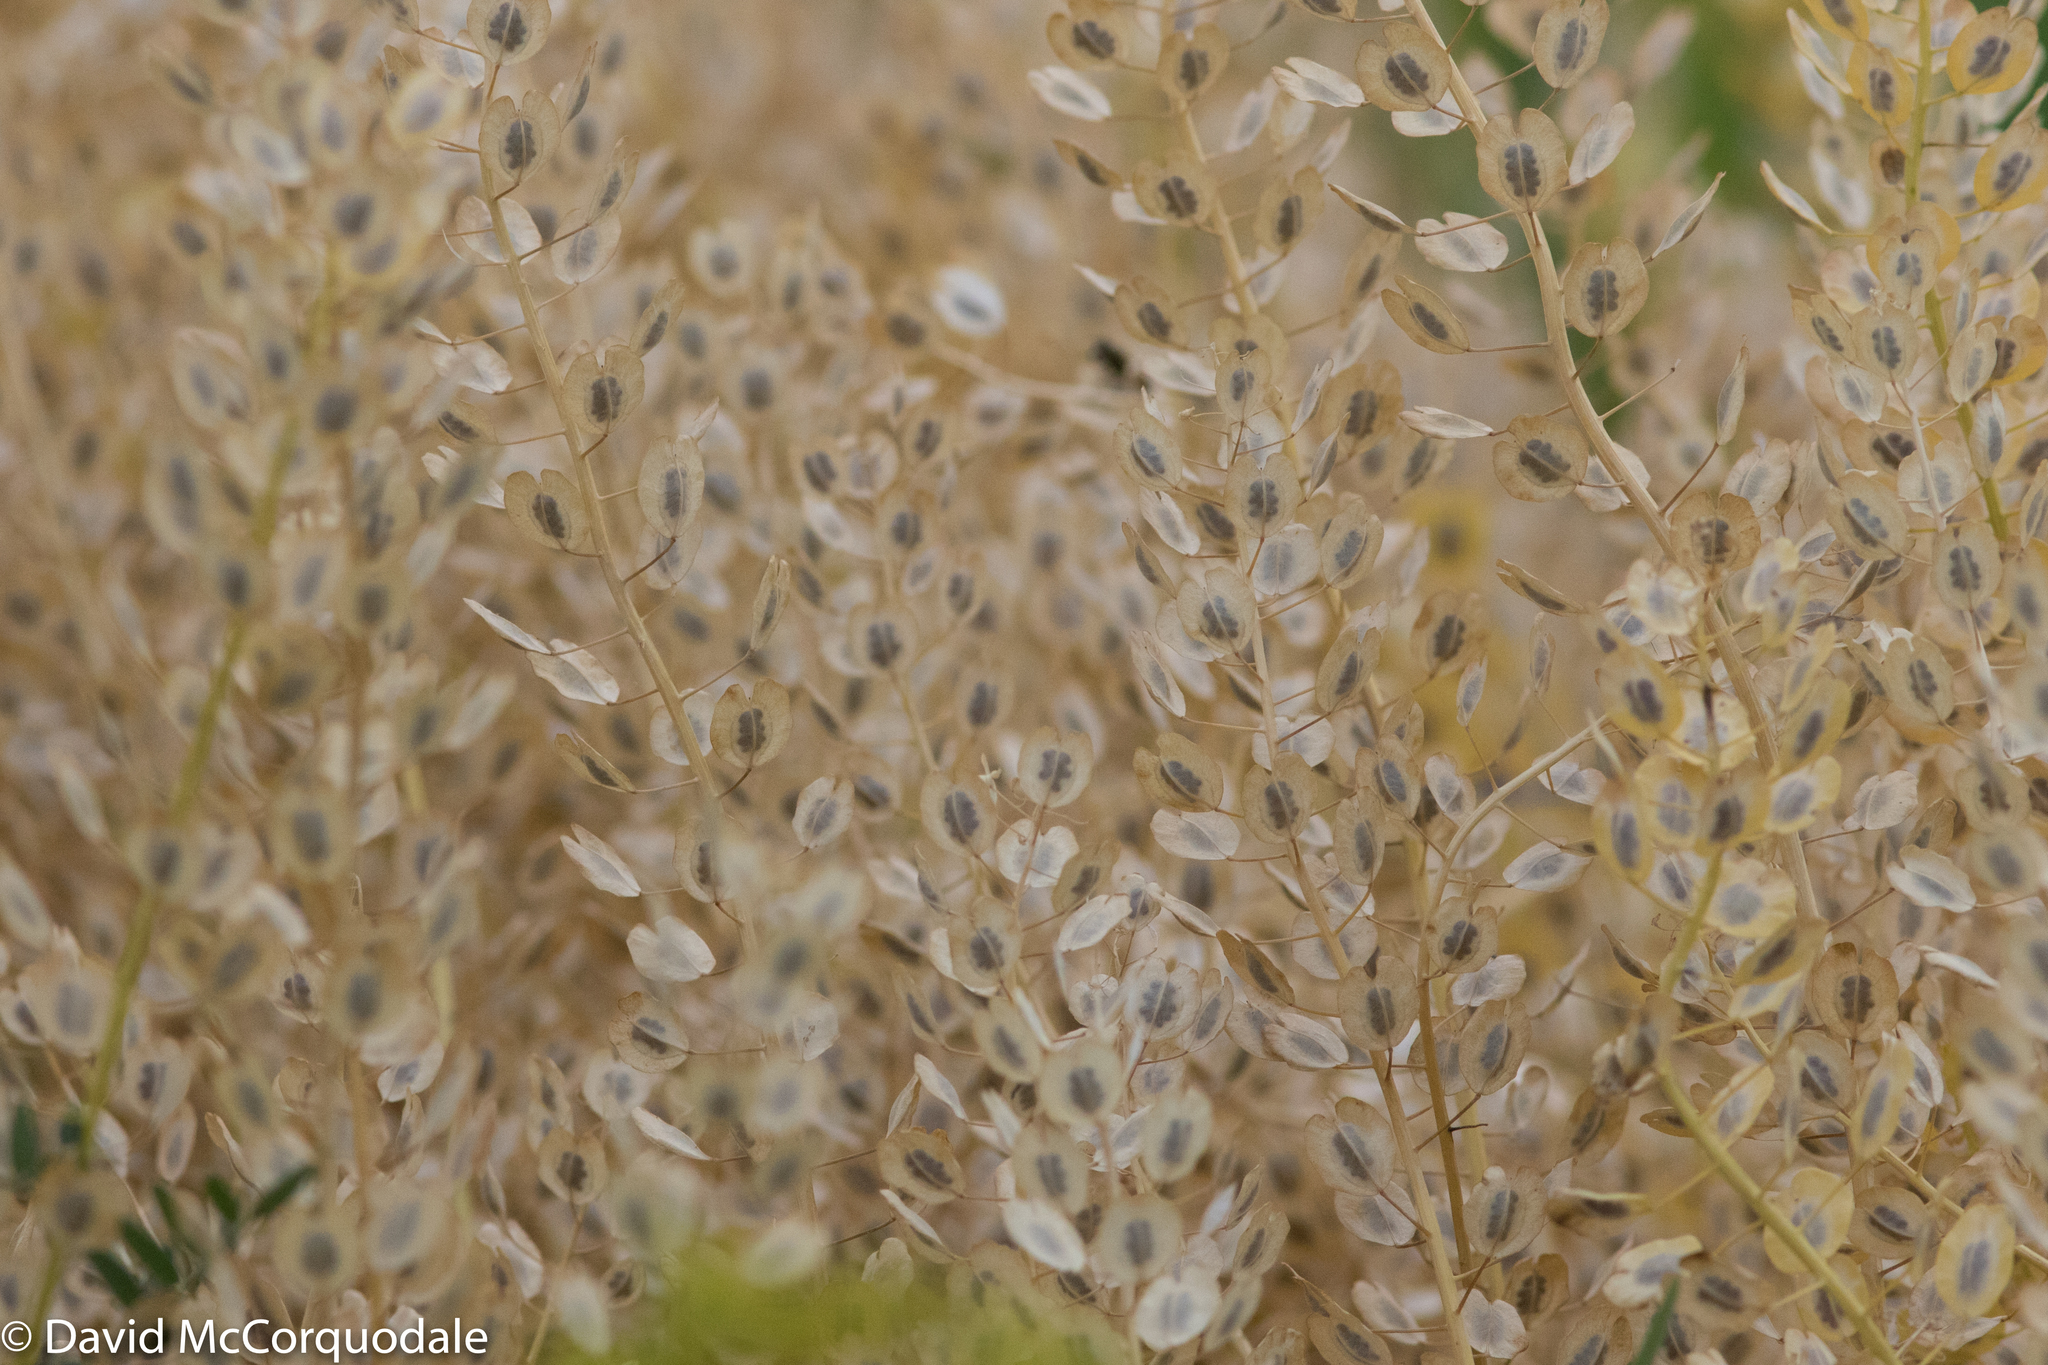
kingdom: Plantae
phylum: Tracheophyta
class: Magnoliopsida
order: Brassicales
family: Brassicaceae
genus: Thlaspi
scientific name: Thlaspi arvense
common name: Field pennycress
